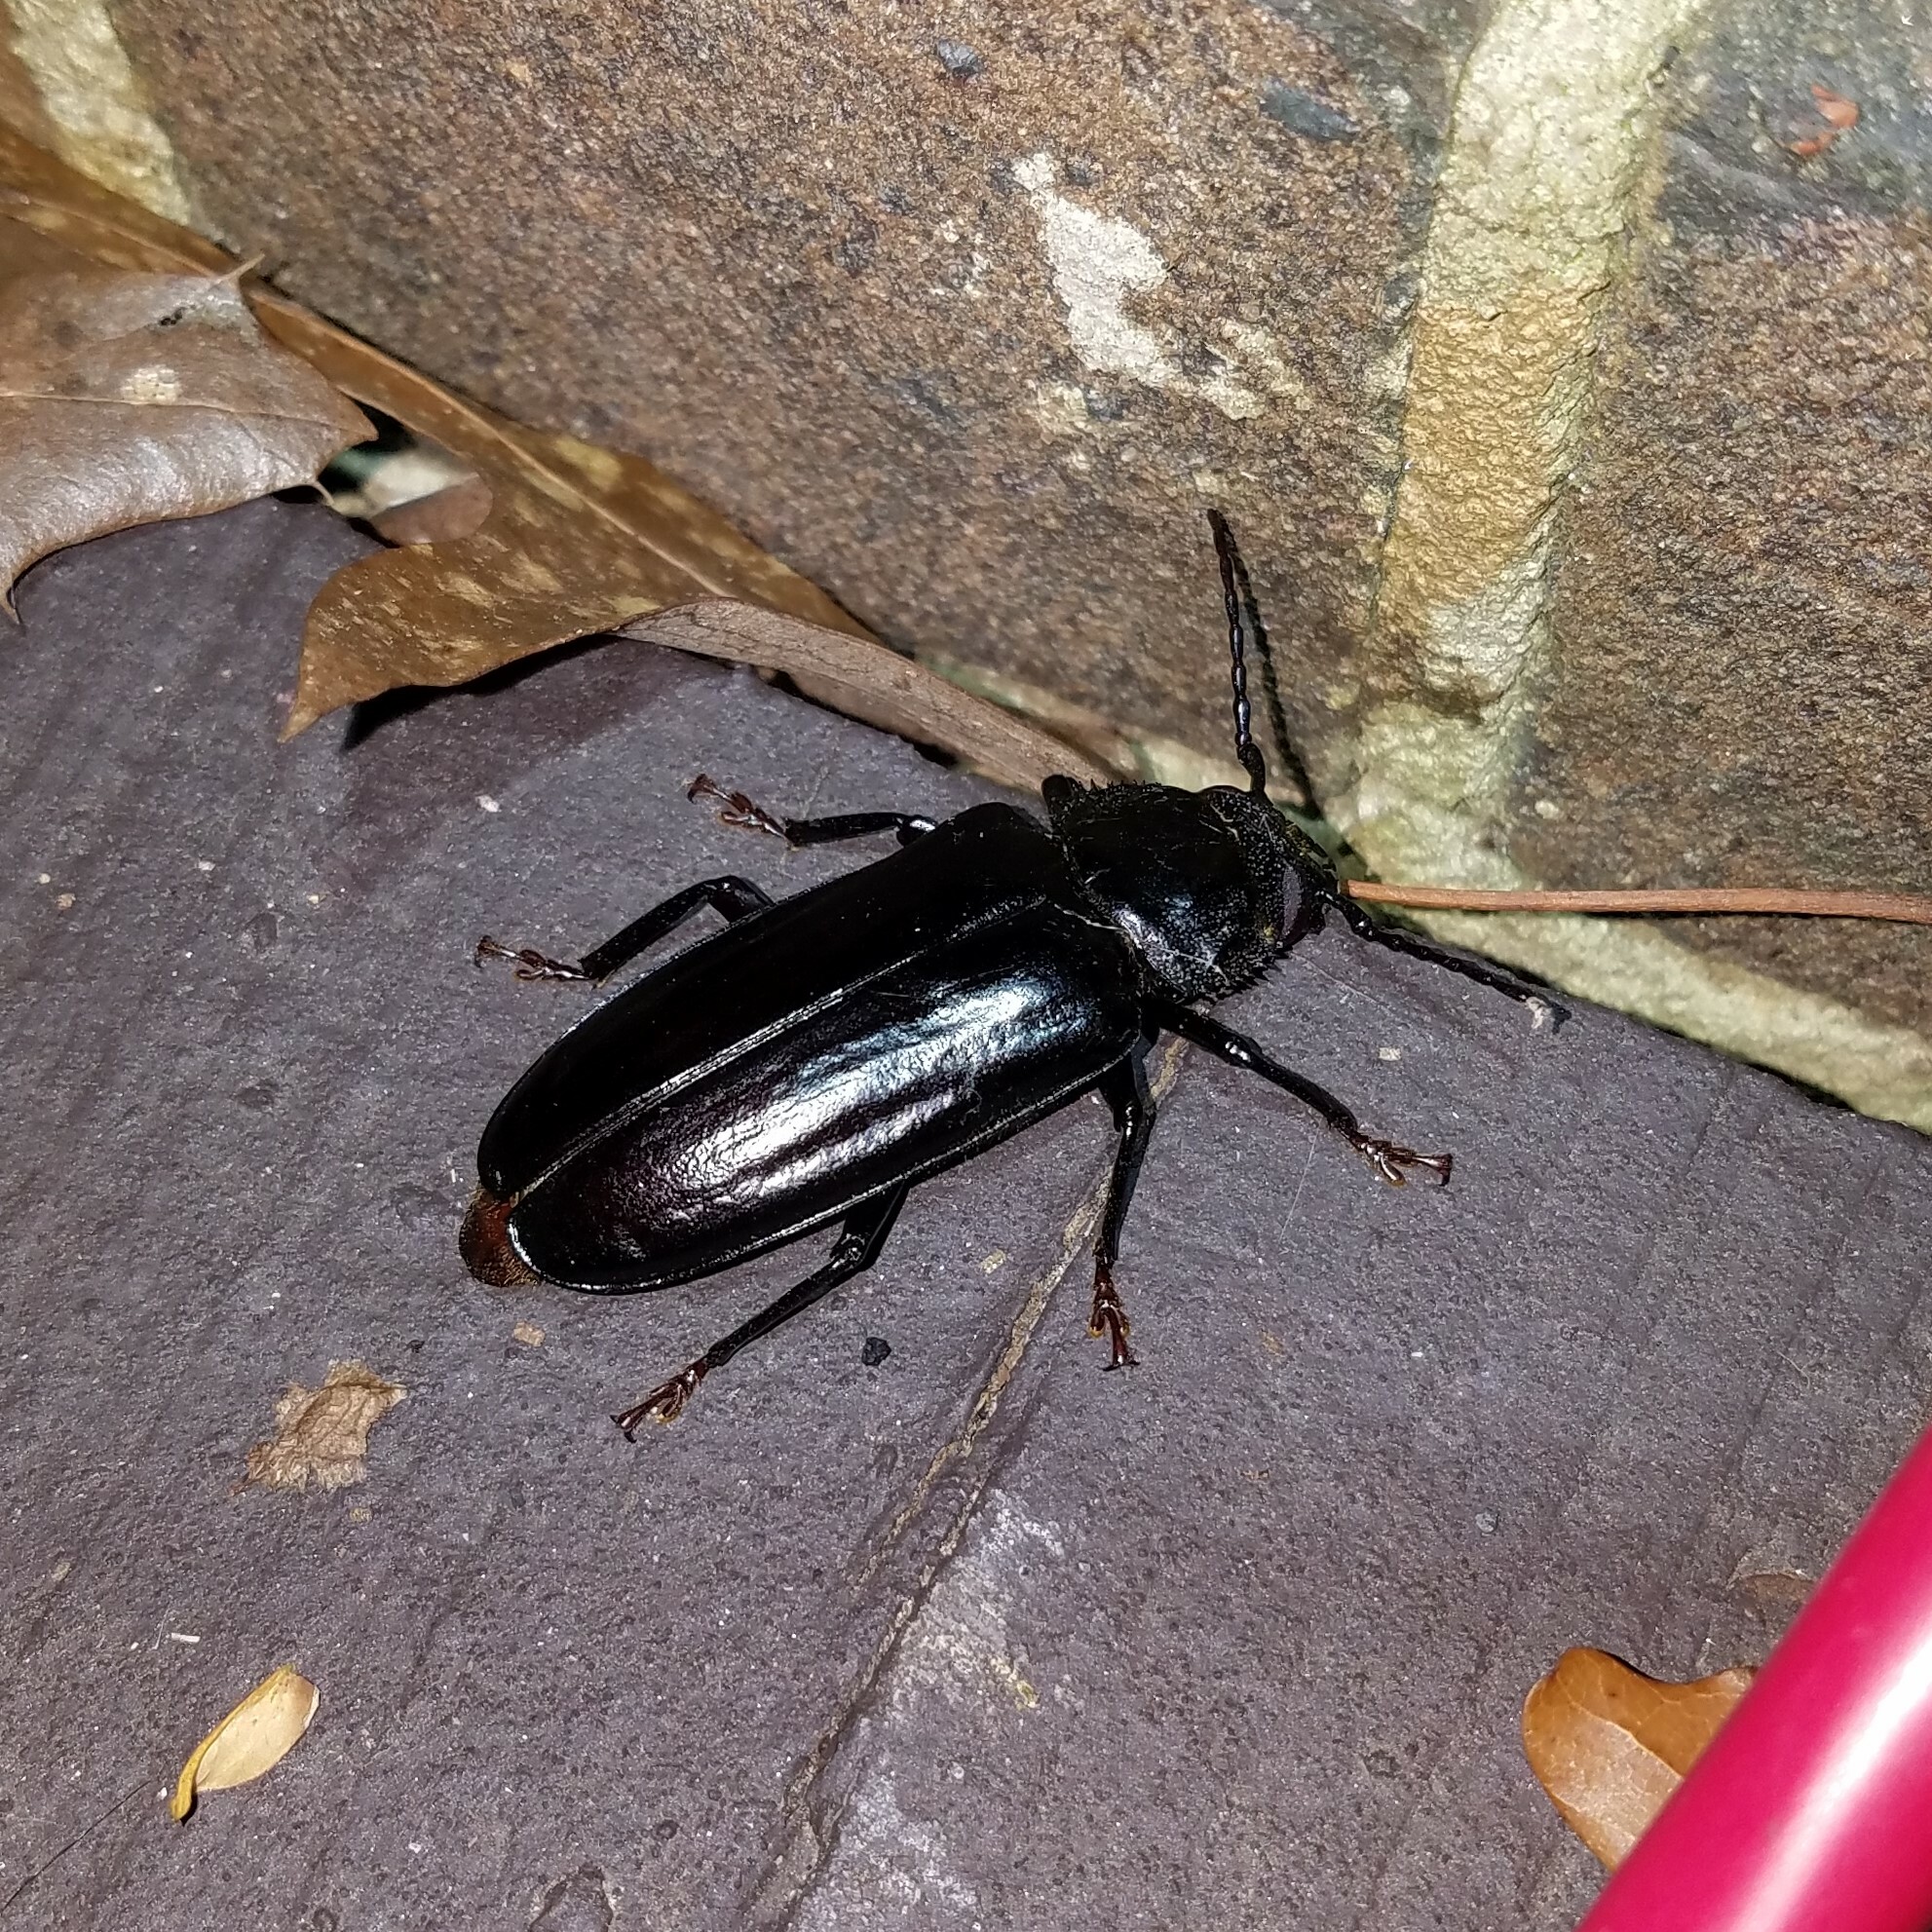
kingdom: Animalia
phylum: Arthropoda
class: Insecta
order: Coleoptera
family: Cerambycidae
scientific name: Cerambycidae
